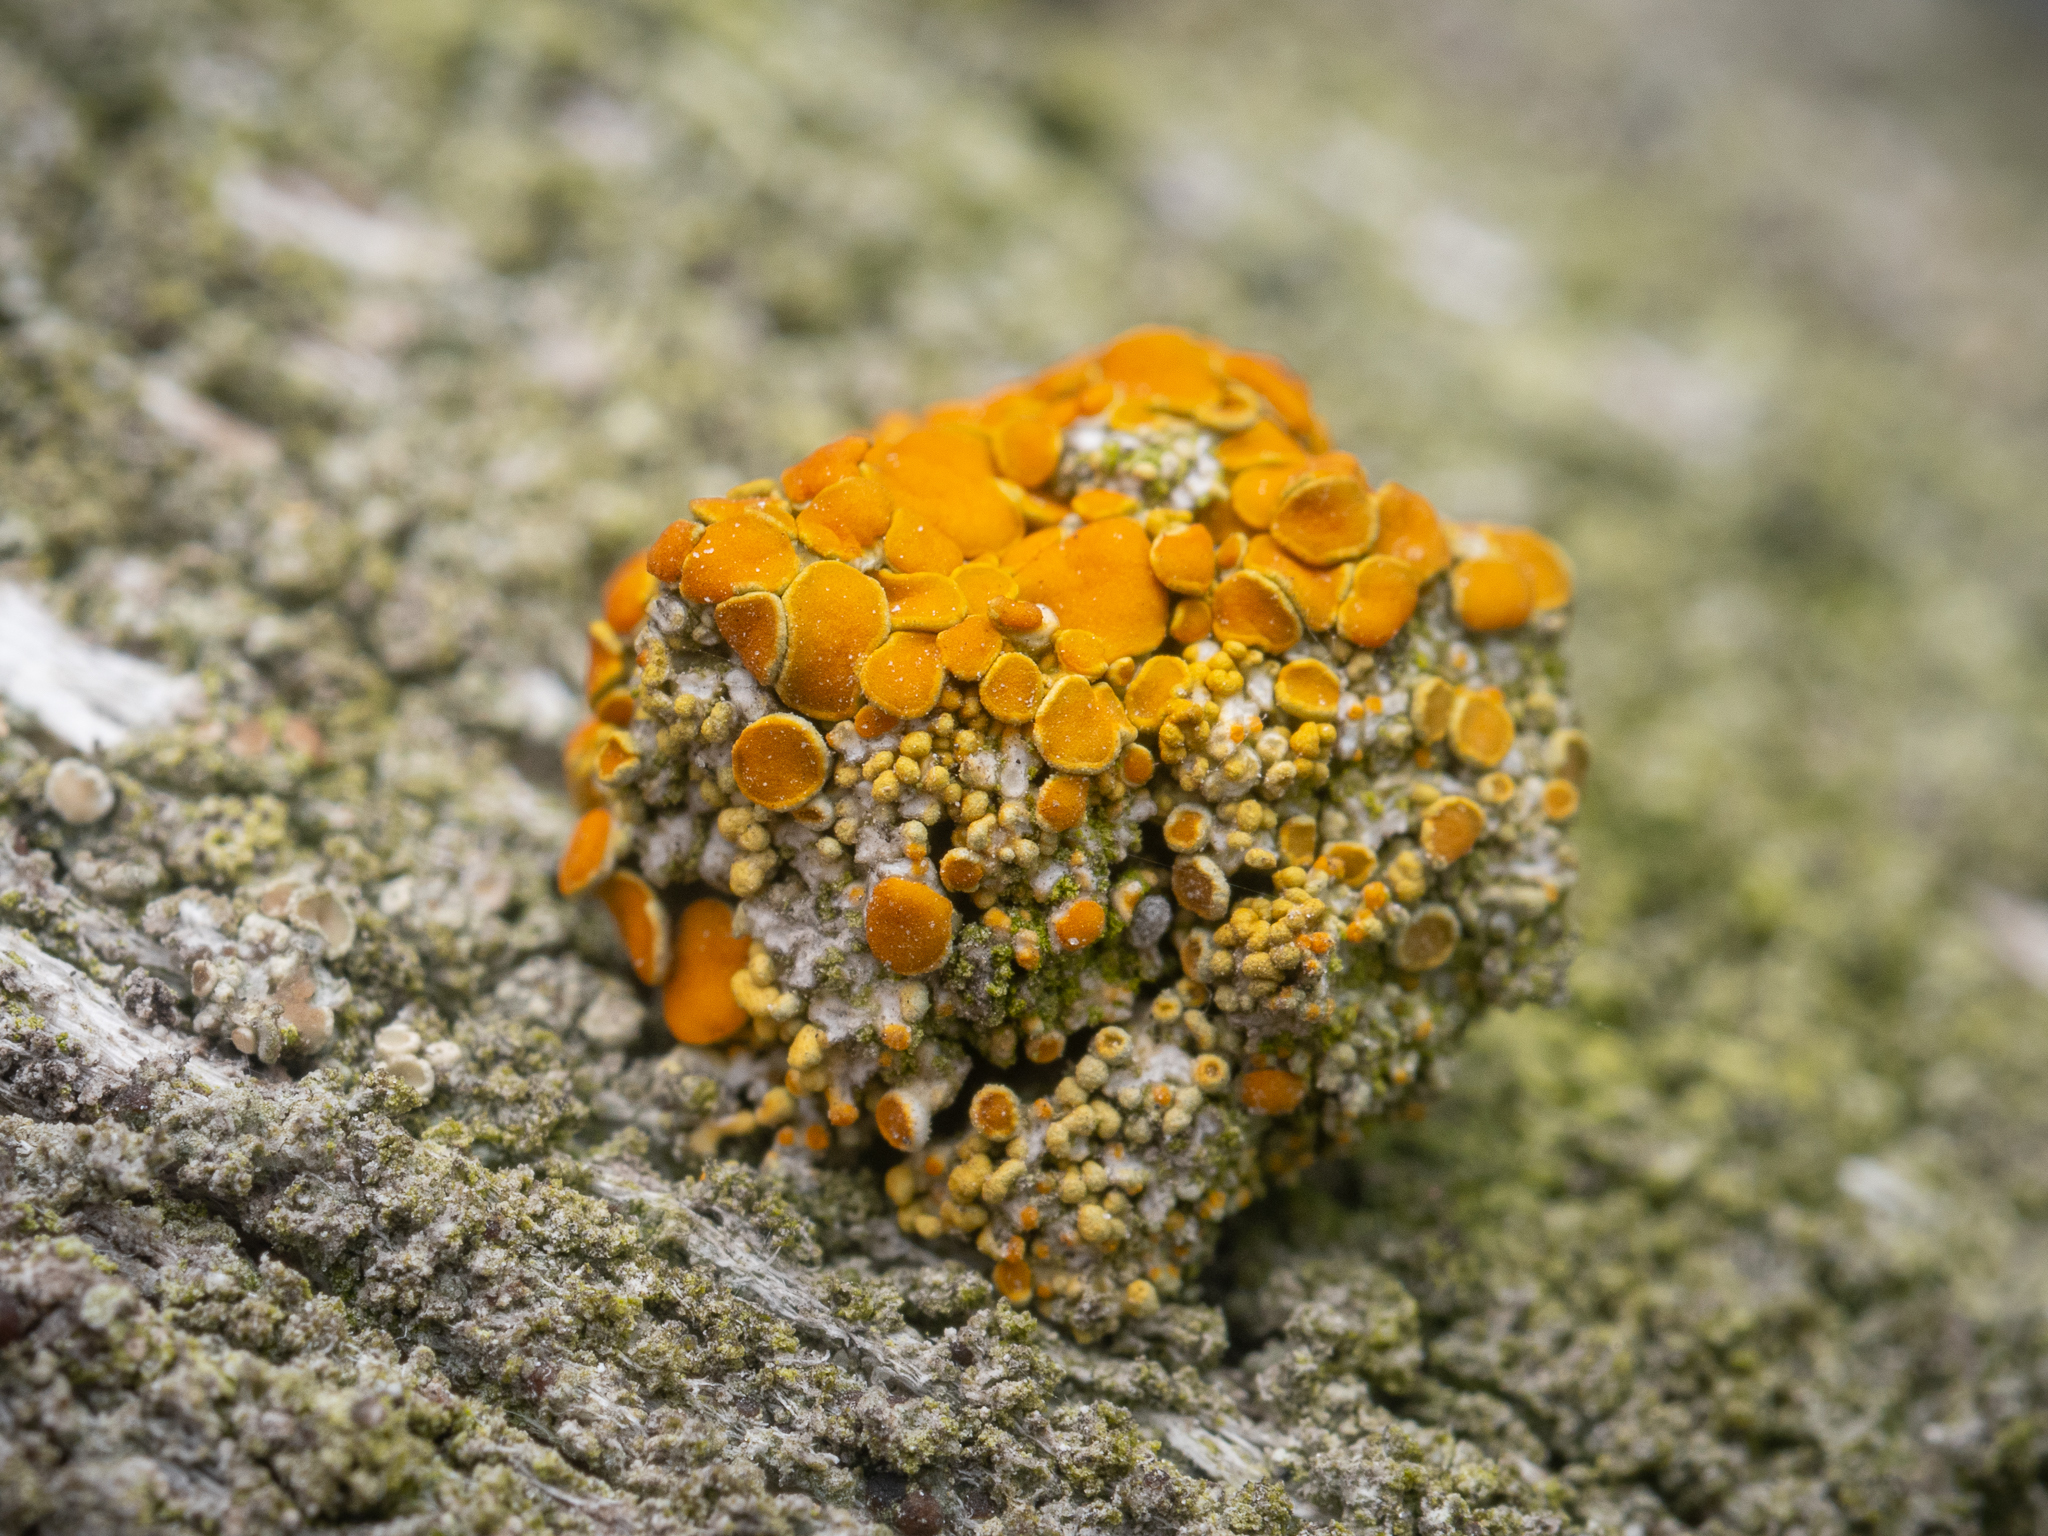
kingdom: Fungi
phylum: Ascomycota
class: Lecanoromycetes
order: Teloschistales
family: Teloschistaceae
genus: Polycauliona
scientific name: Polycauliona polycarpa
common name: Pin-cushion sunburst lichen
